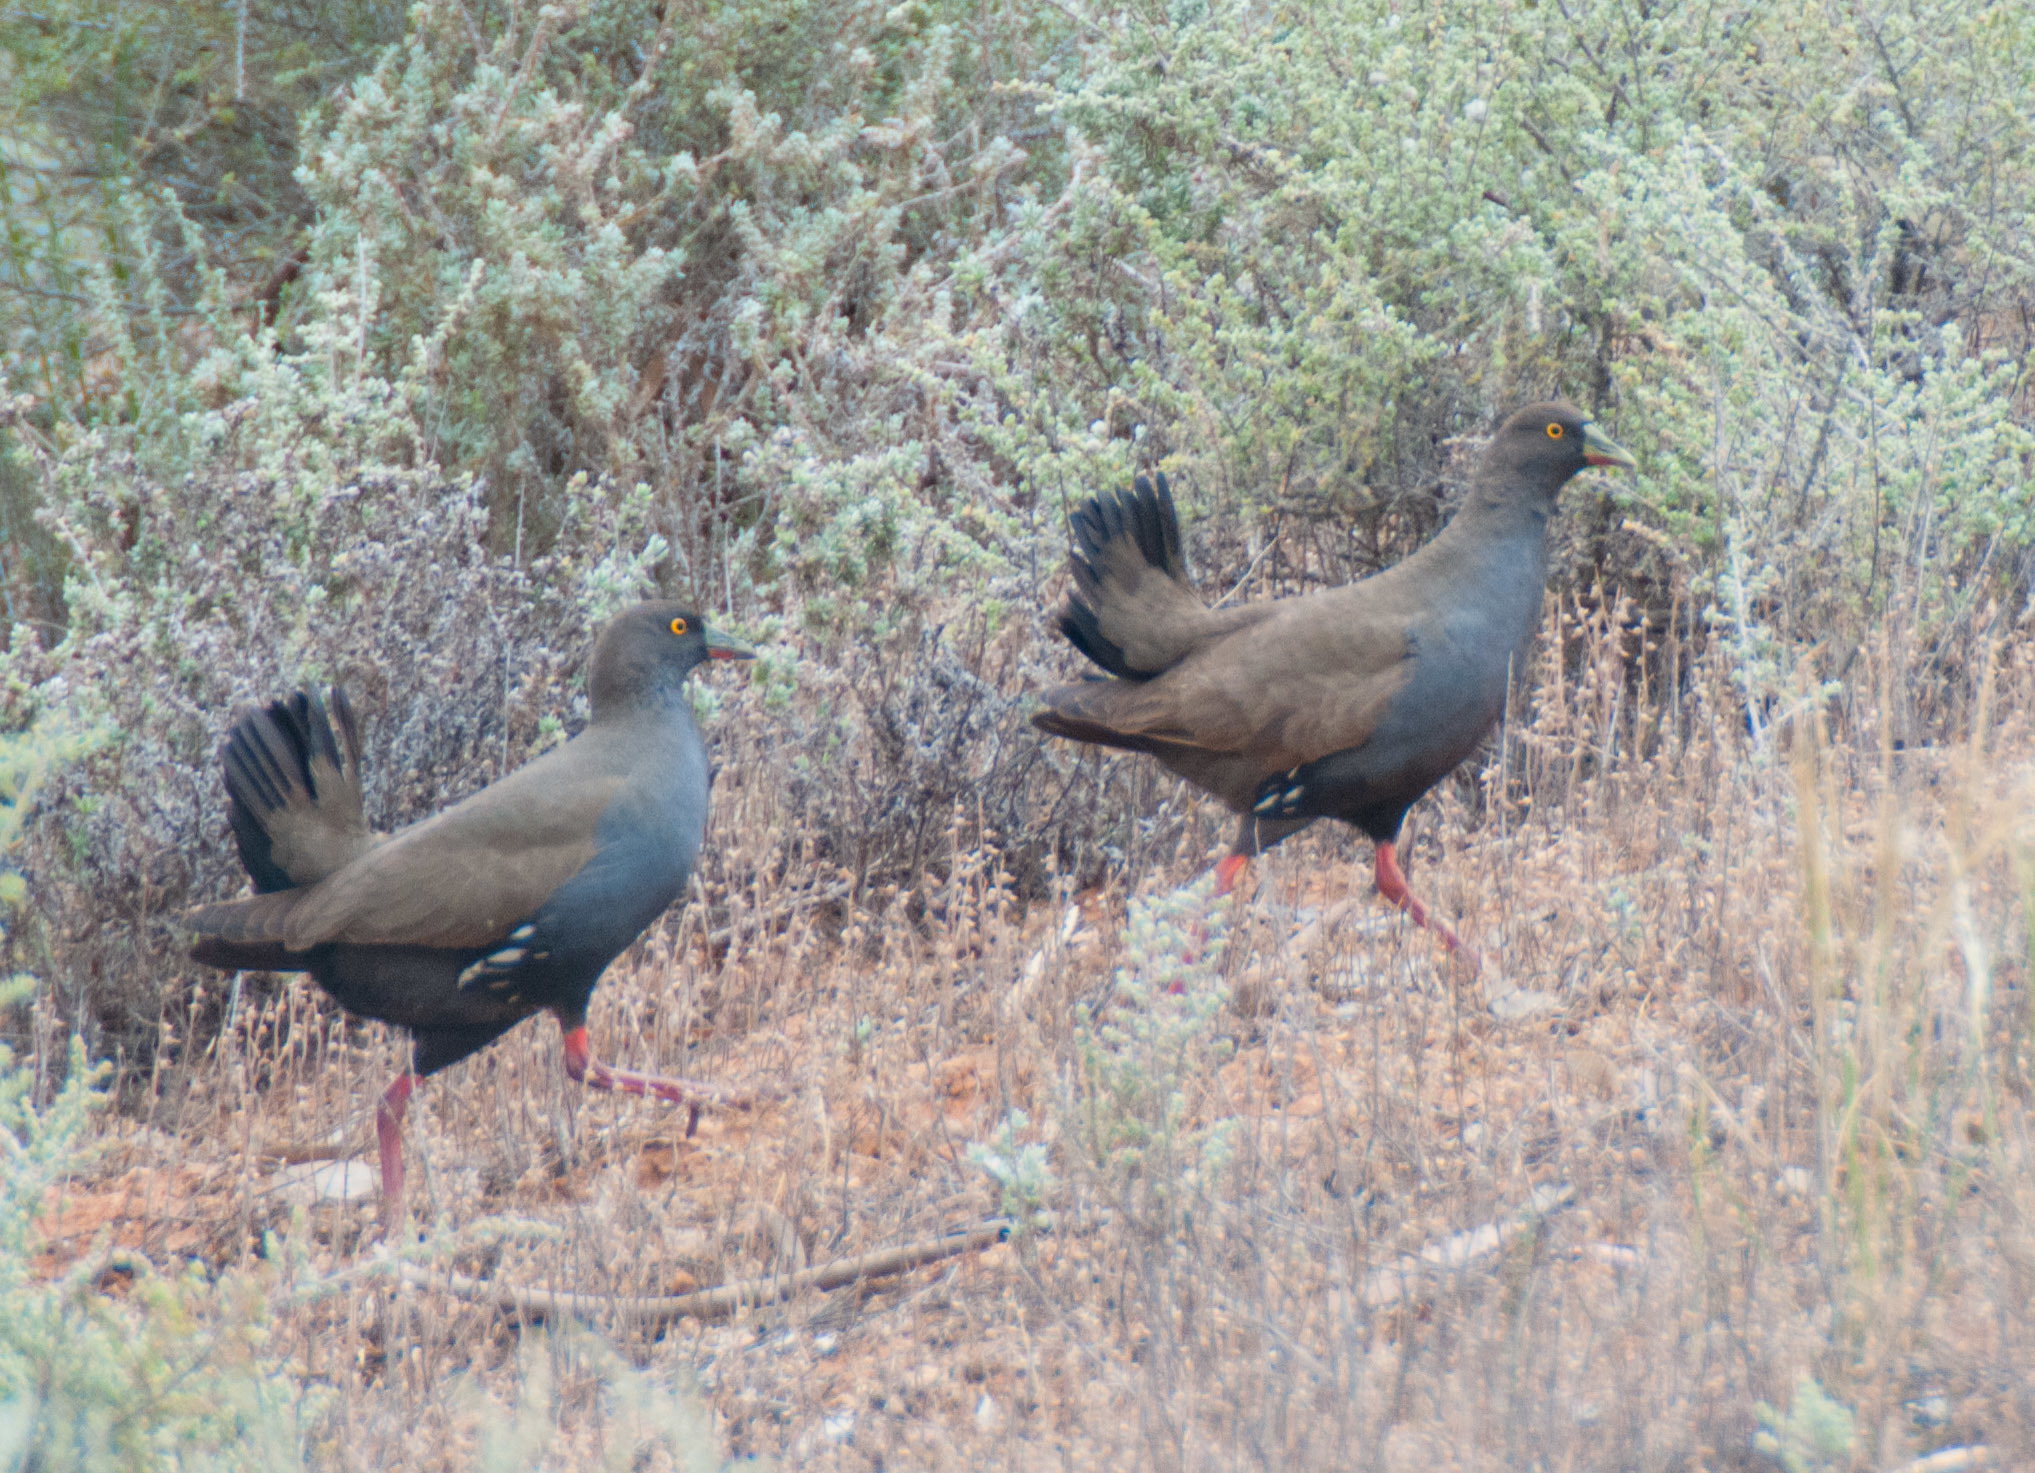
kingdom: Animalia
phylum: Chordata
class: Aves
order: Gruiformes
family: Rallidae
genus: Gallinula
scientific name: Gallinula ventralis
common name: Black-tailed nativehen
